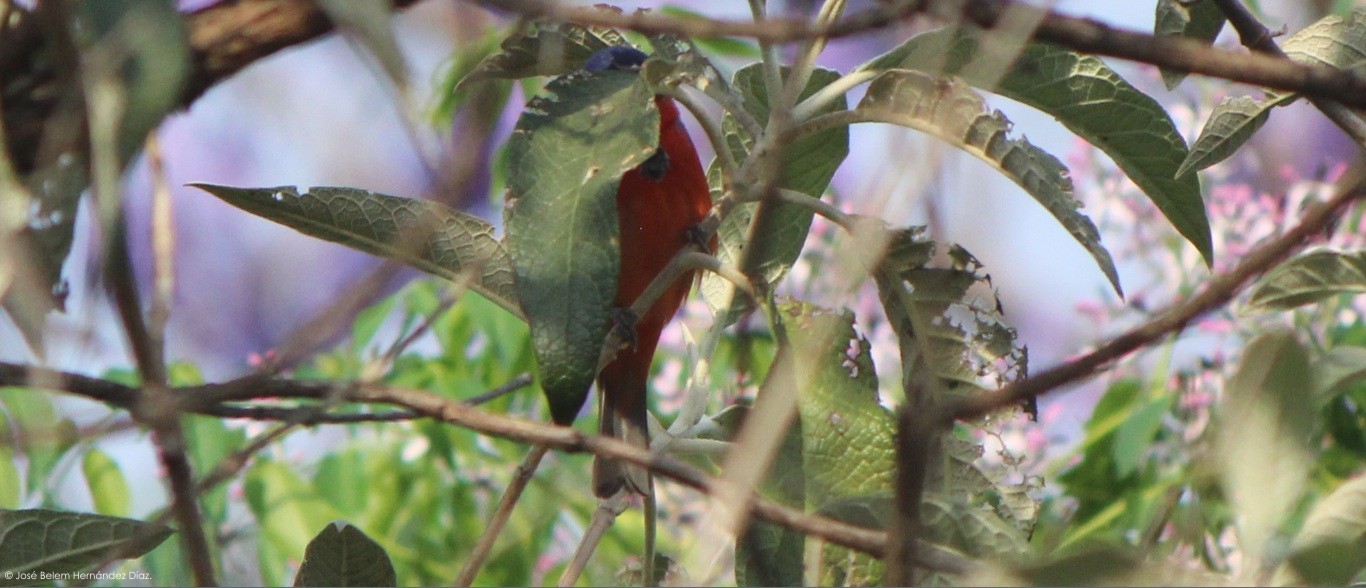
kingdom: Animalia
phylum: Chordata
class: Aves
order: Passeriformes
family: Cardinalidae
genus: Passerina
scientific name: Passerina ciris
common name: Painted bunting
